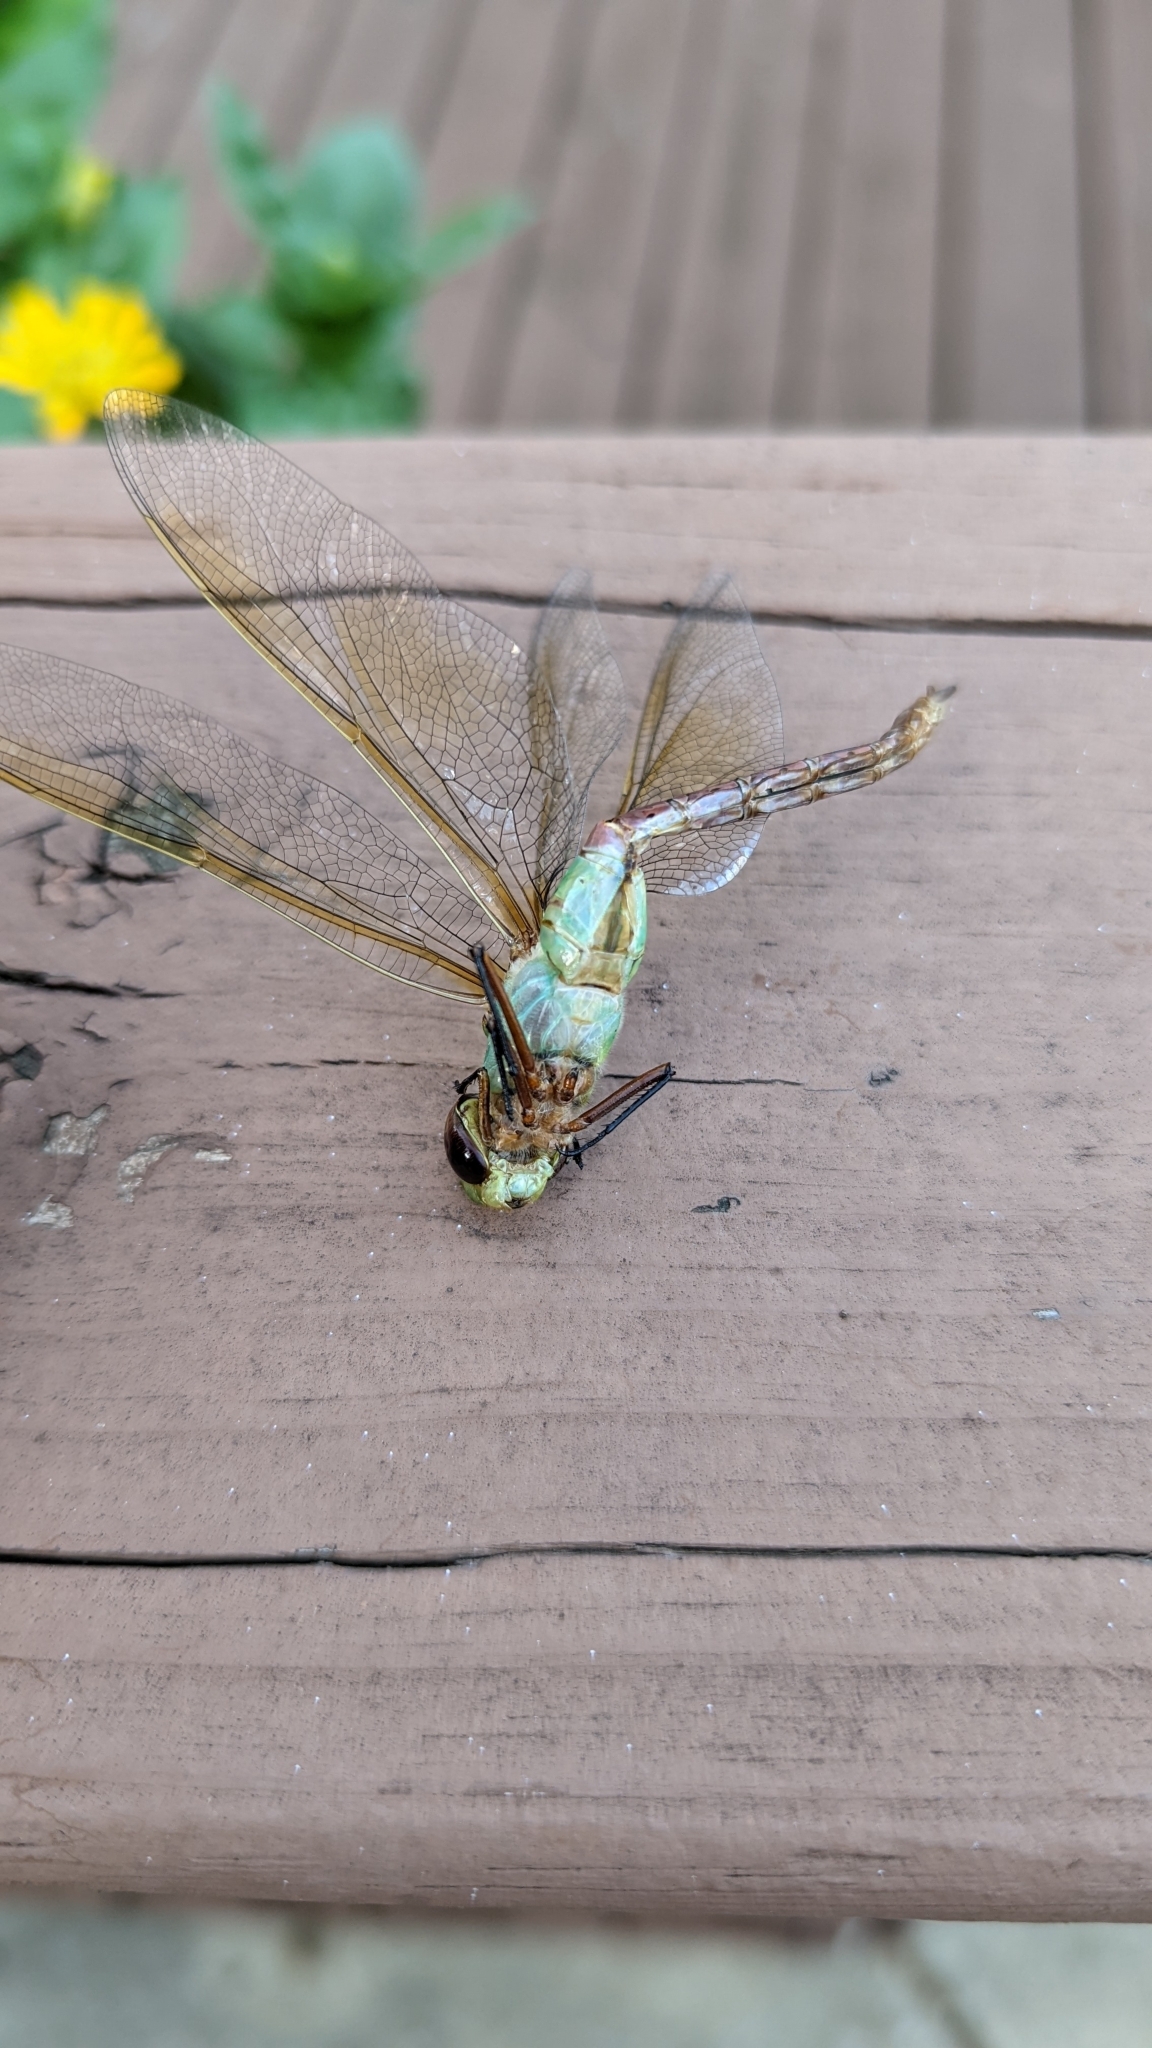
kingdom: Animalia
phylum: Arthropoda
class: Insecta
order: Odonata
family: Aeshnidae
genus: Anax
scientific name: Anax junius
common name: Common green darner
